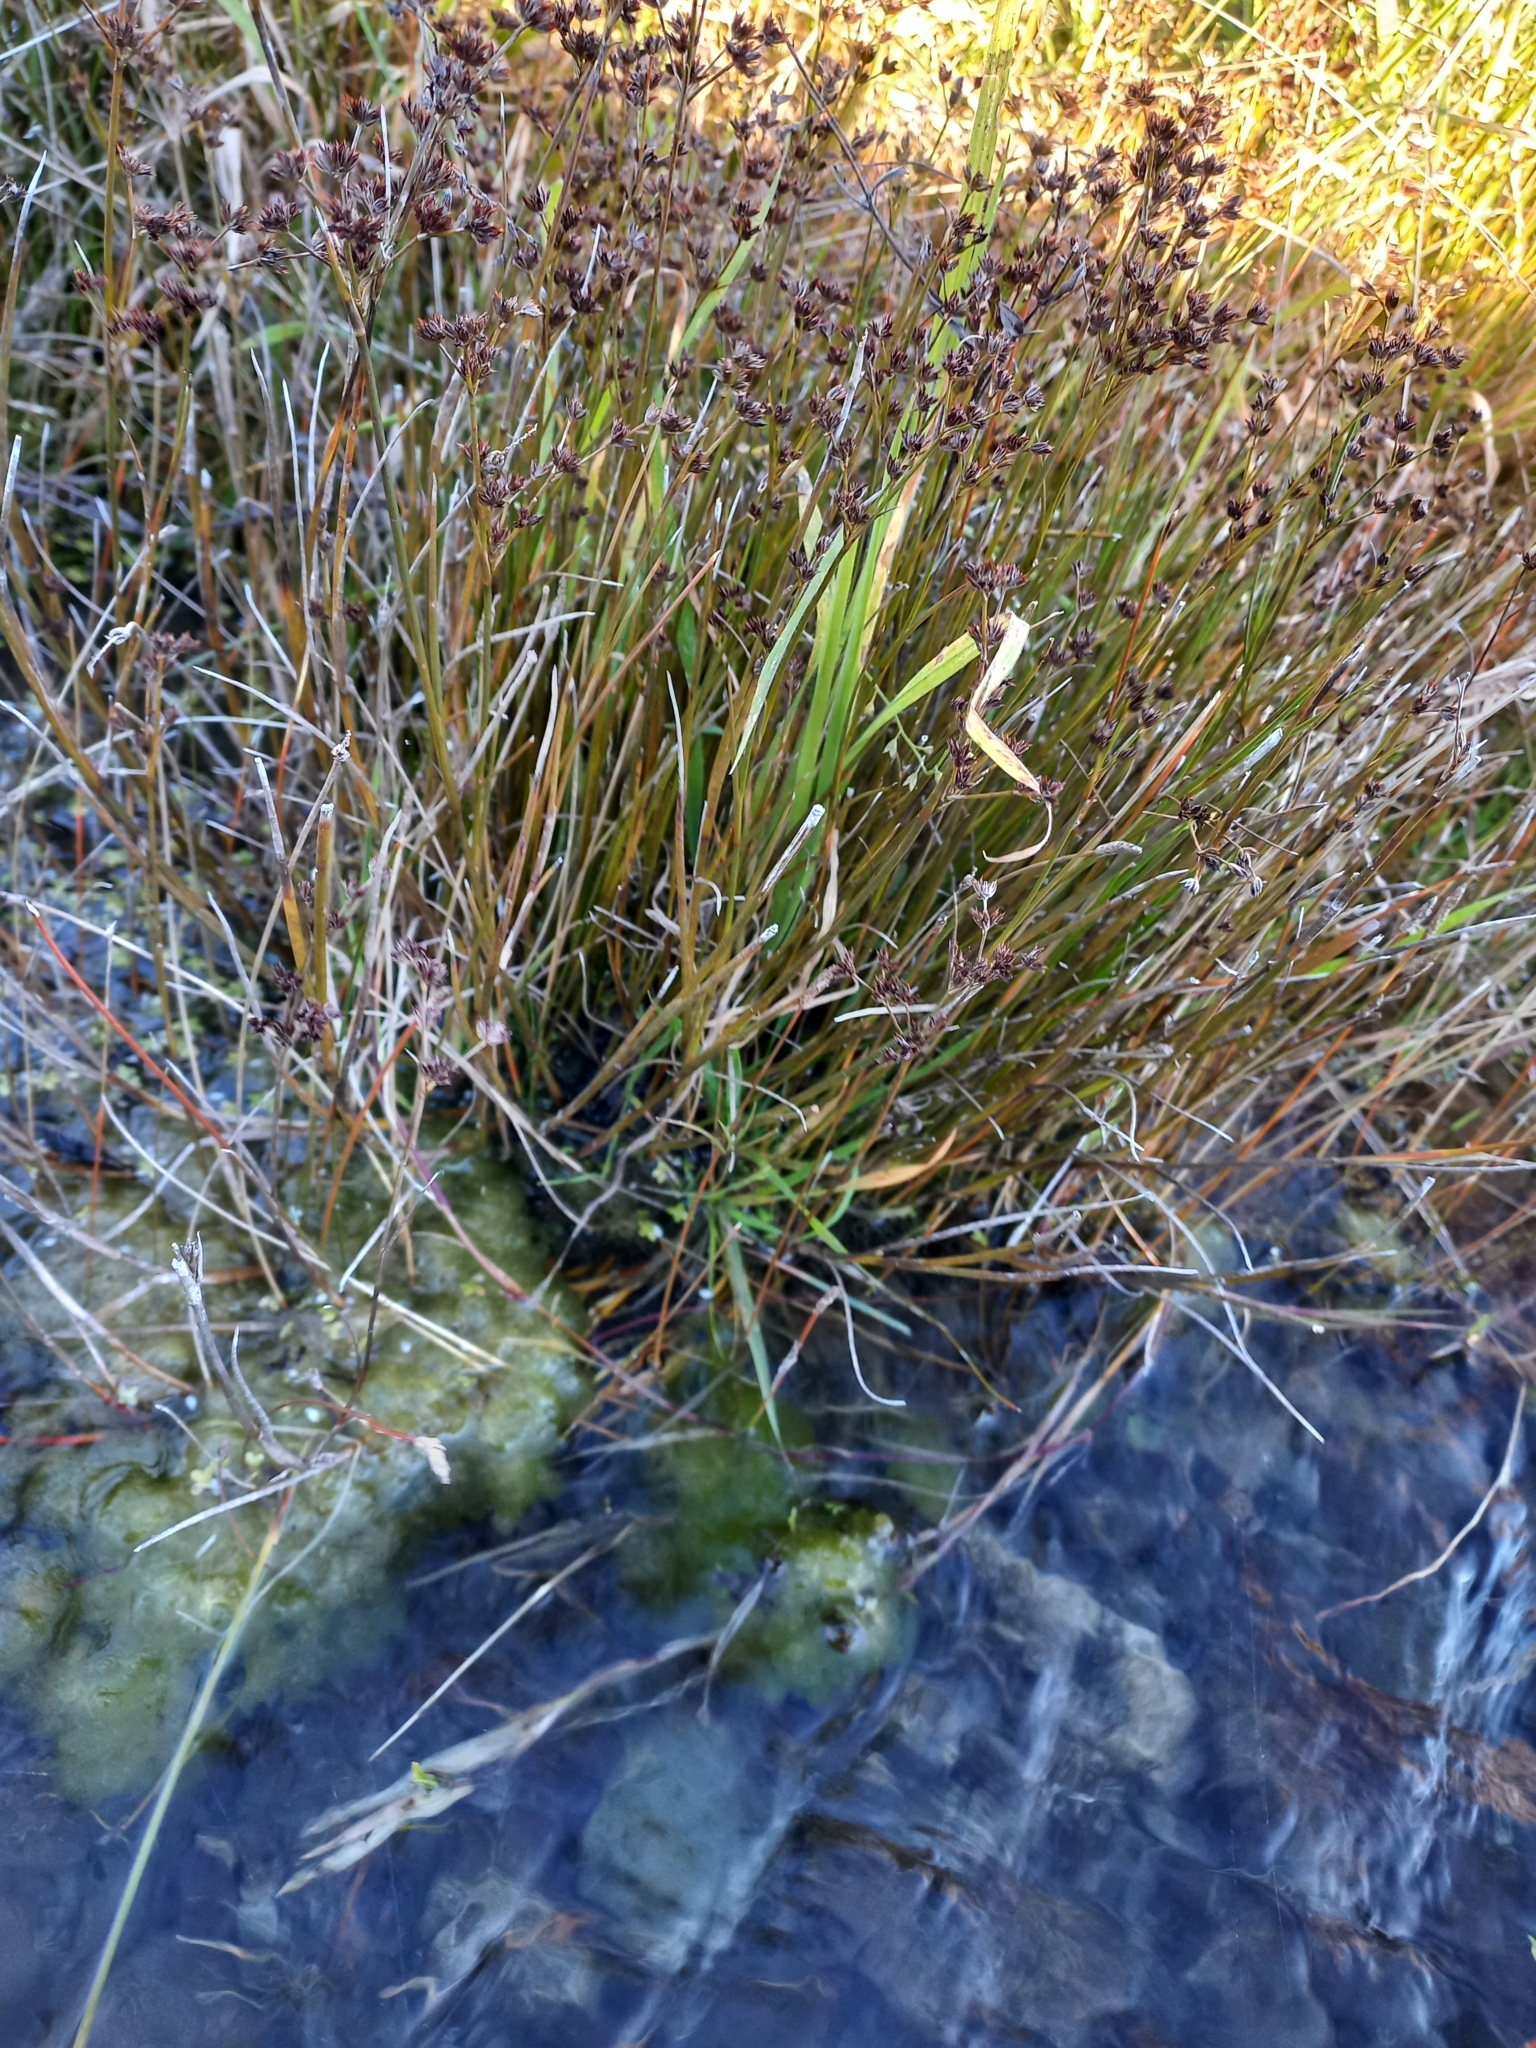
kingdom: Plantae
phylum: Tracheophyta
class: Liliopsida
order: Poales
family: Juncaceae
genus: Juncus
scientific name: Juncus articulatus
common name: Jointed rush
